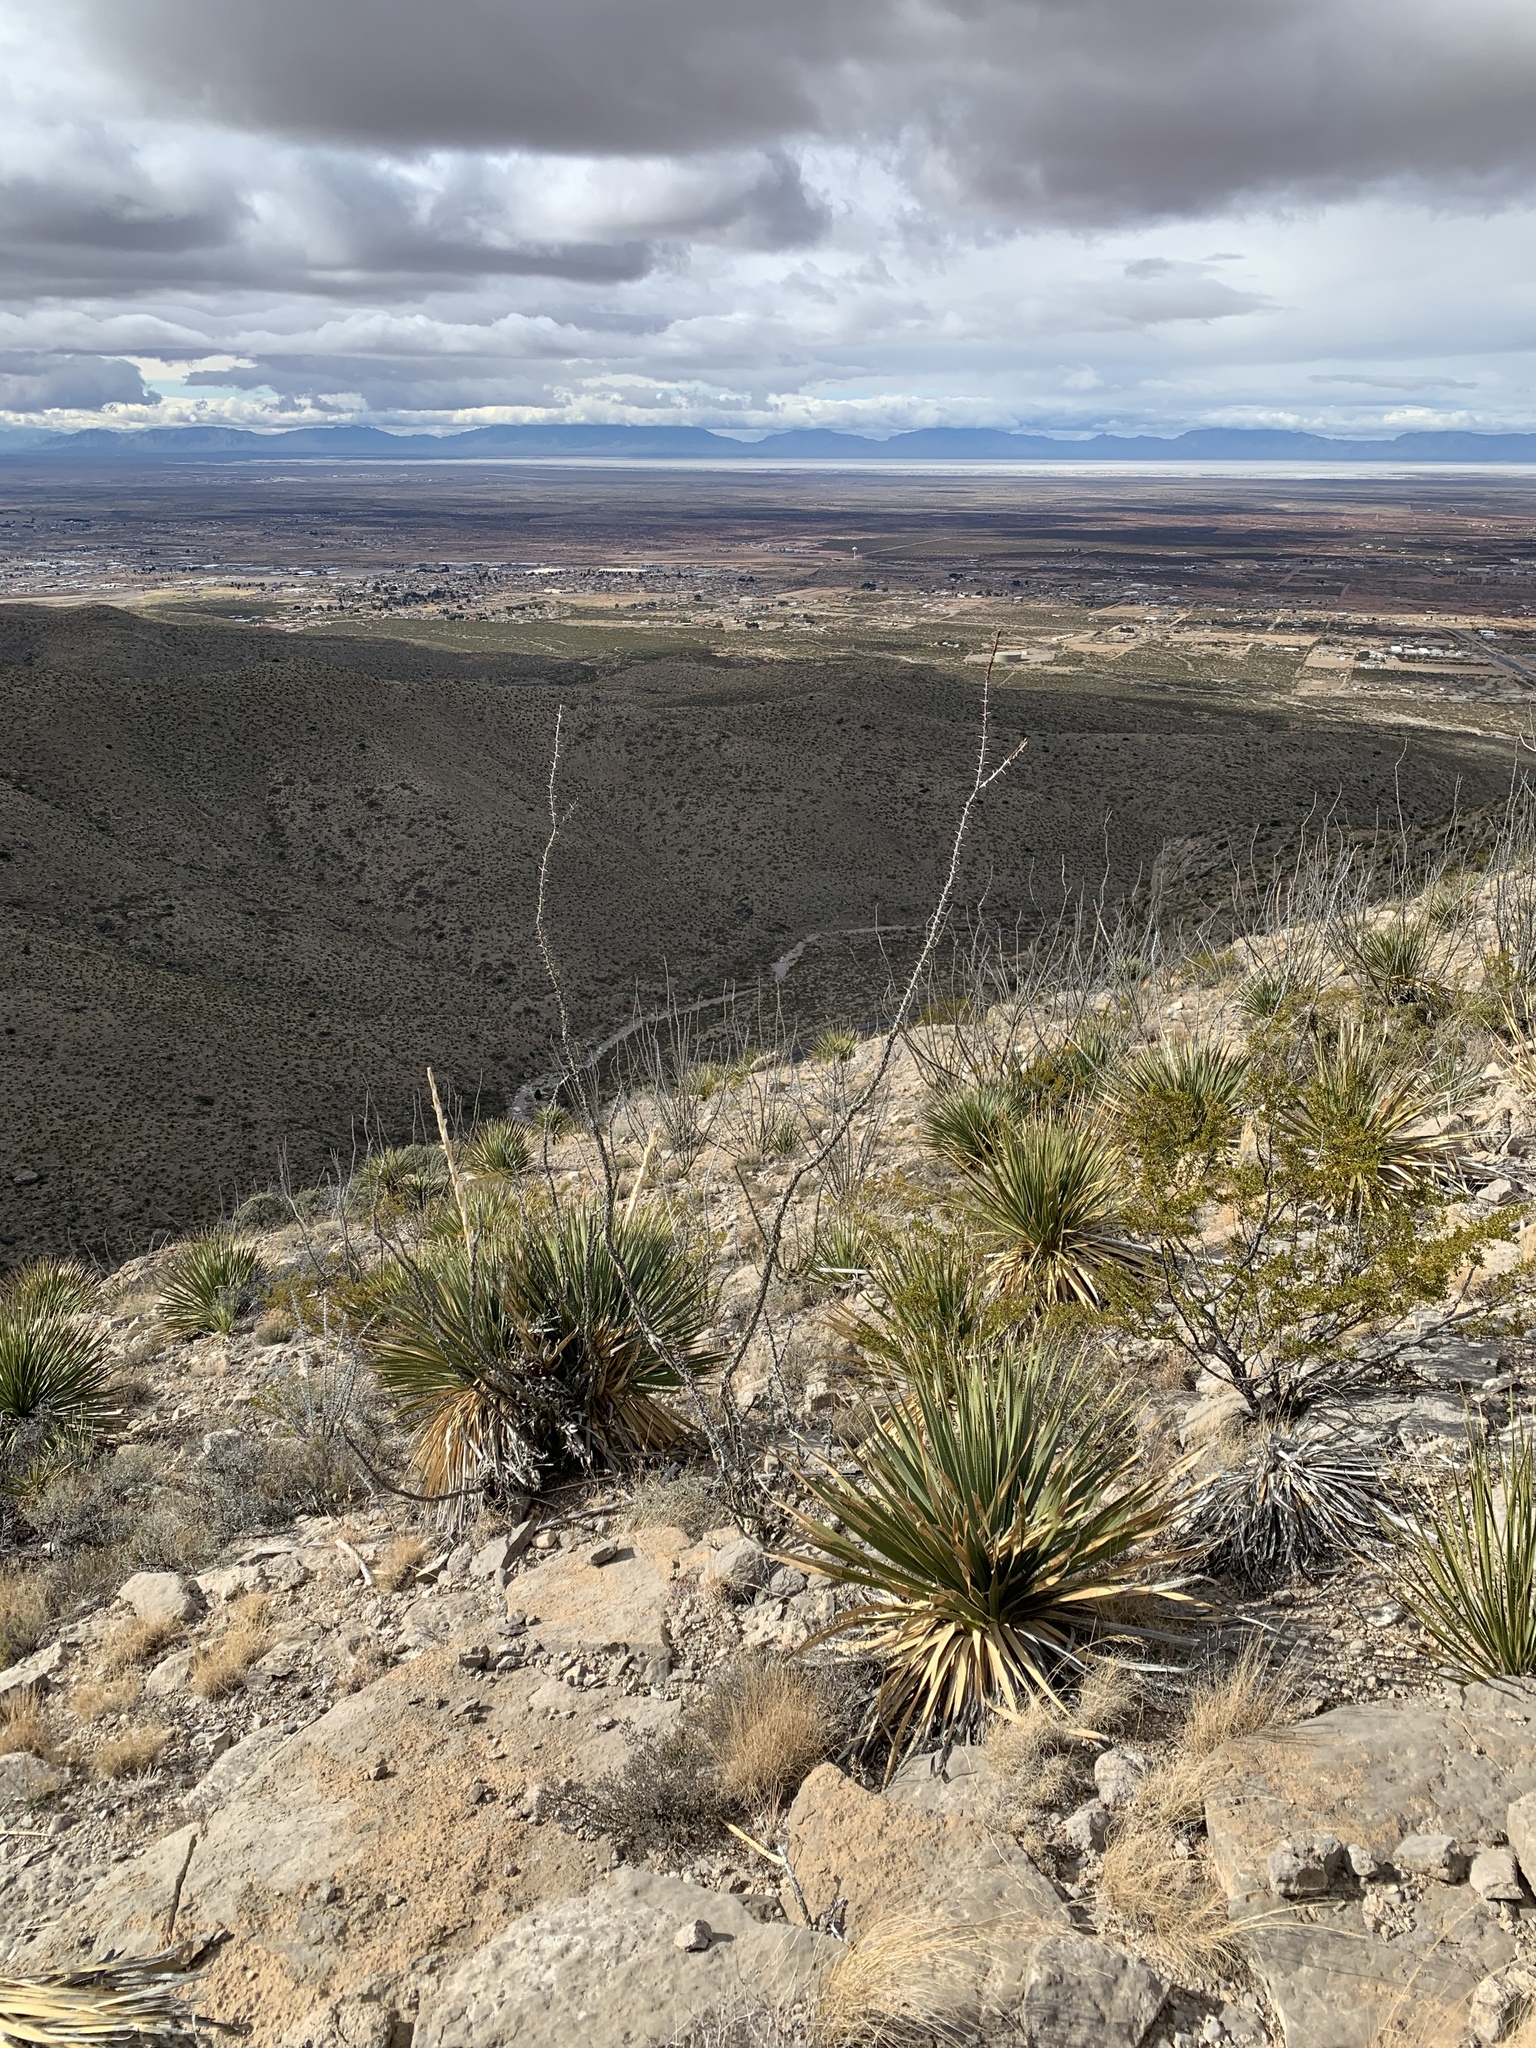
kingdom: Plantae
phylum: Tracheophyta
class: Magnoliopsida
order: Ericales
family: Fouquieriaceae
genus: Fouquieria
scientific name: Fouquieria splendens
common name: Vine-cactus
